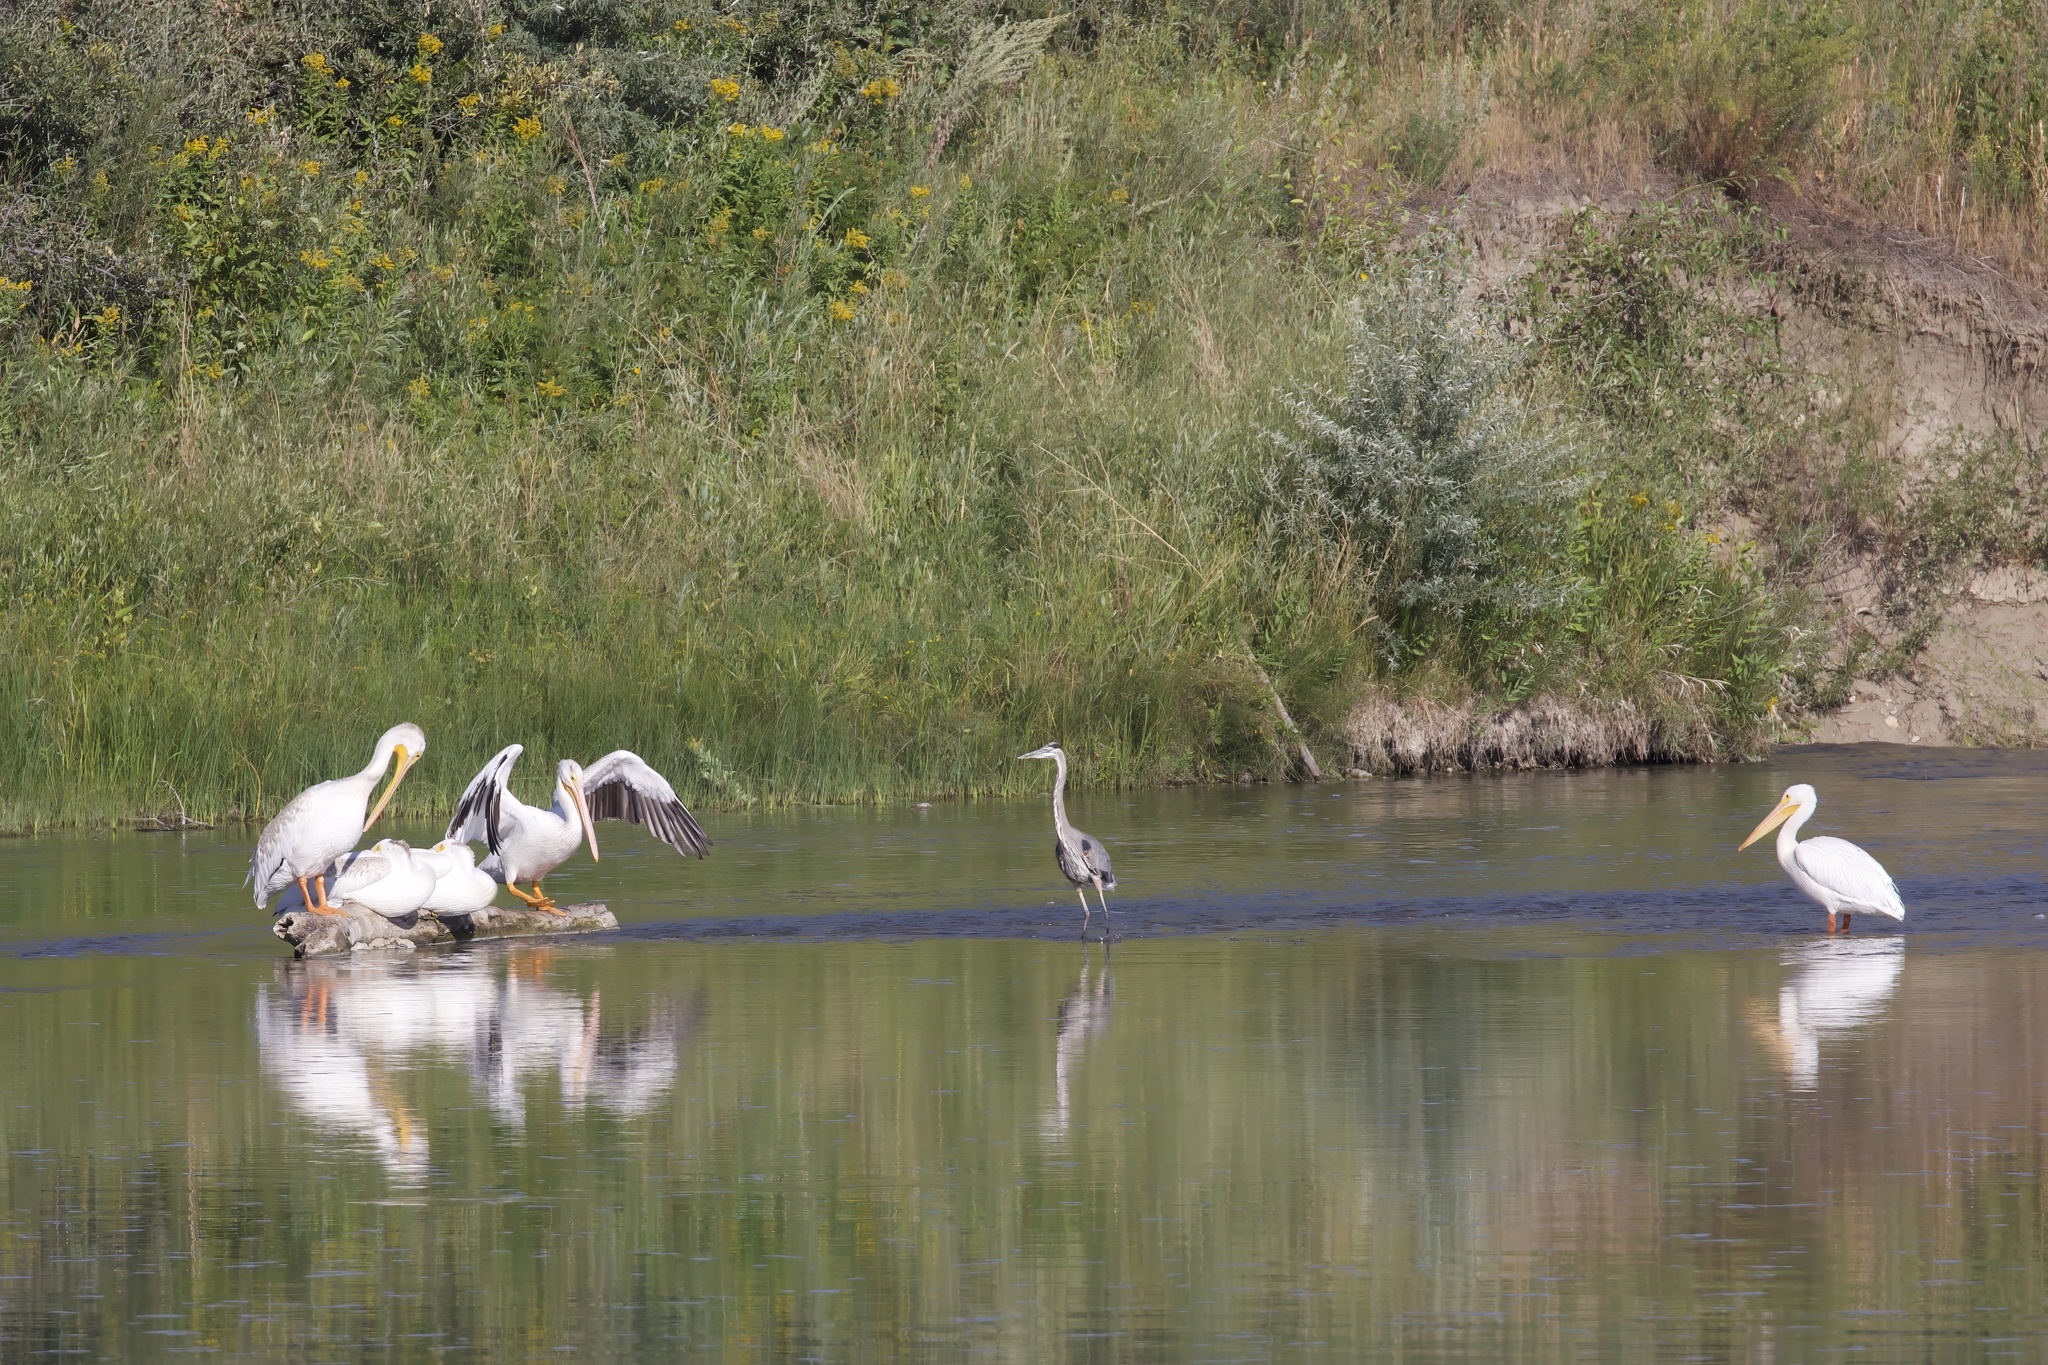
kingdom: Animalia
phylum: Chordata
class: Aves
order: Pelecaniformes
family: Pelecanidae
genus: Pelecanus
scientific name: Pelecanus erythrorhynchos
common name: American white pelican
